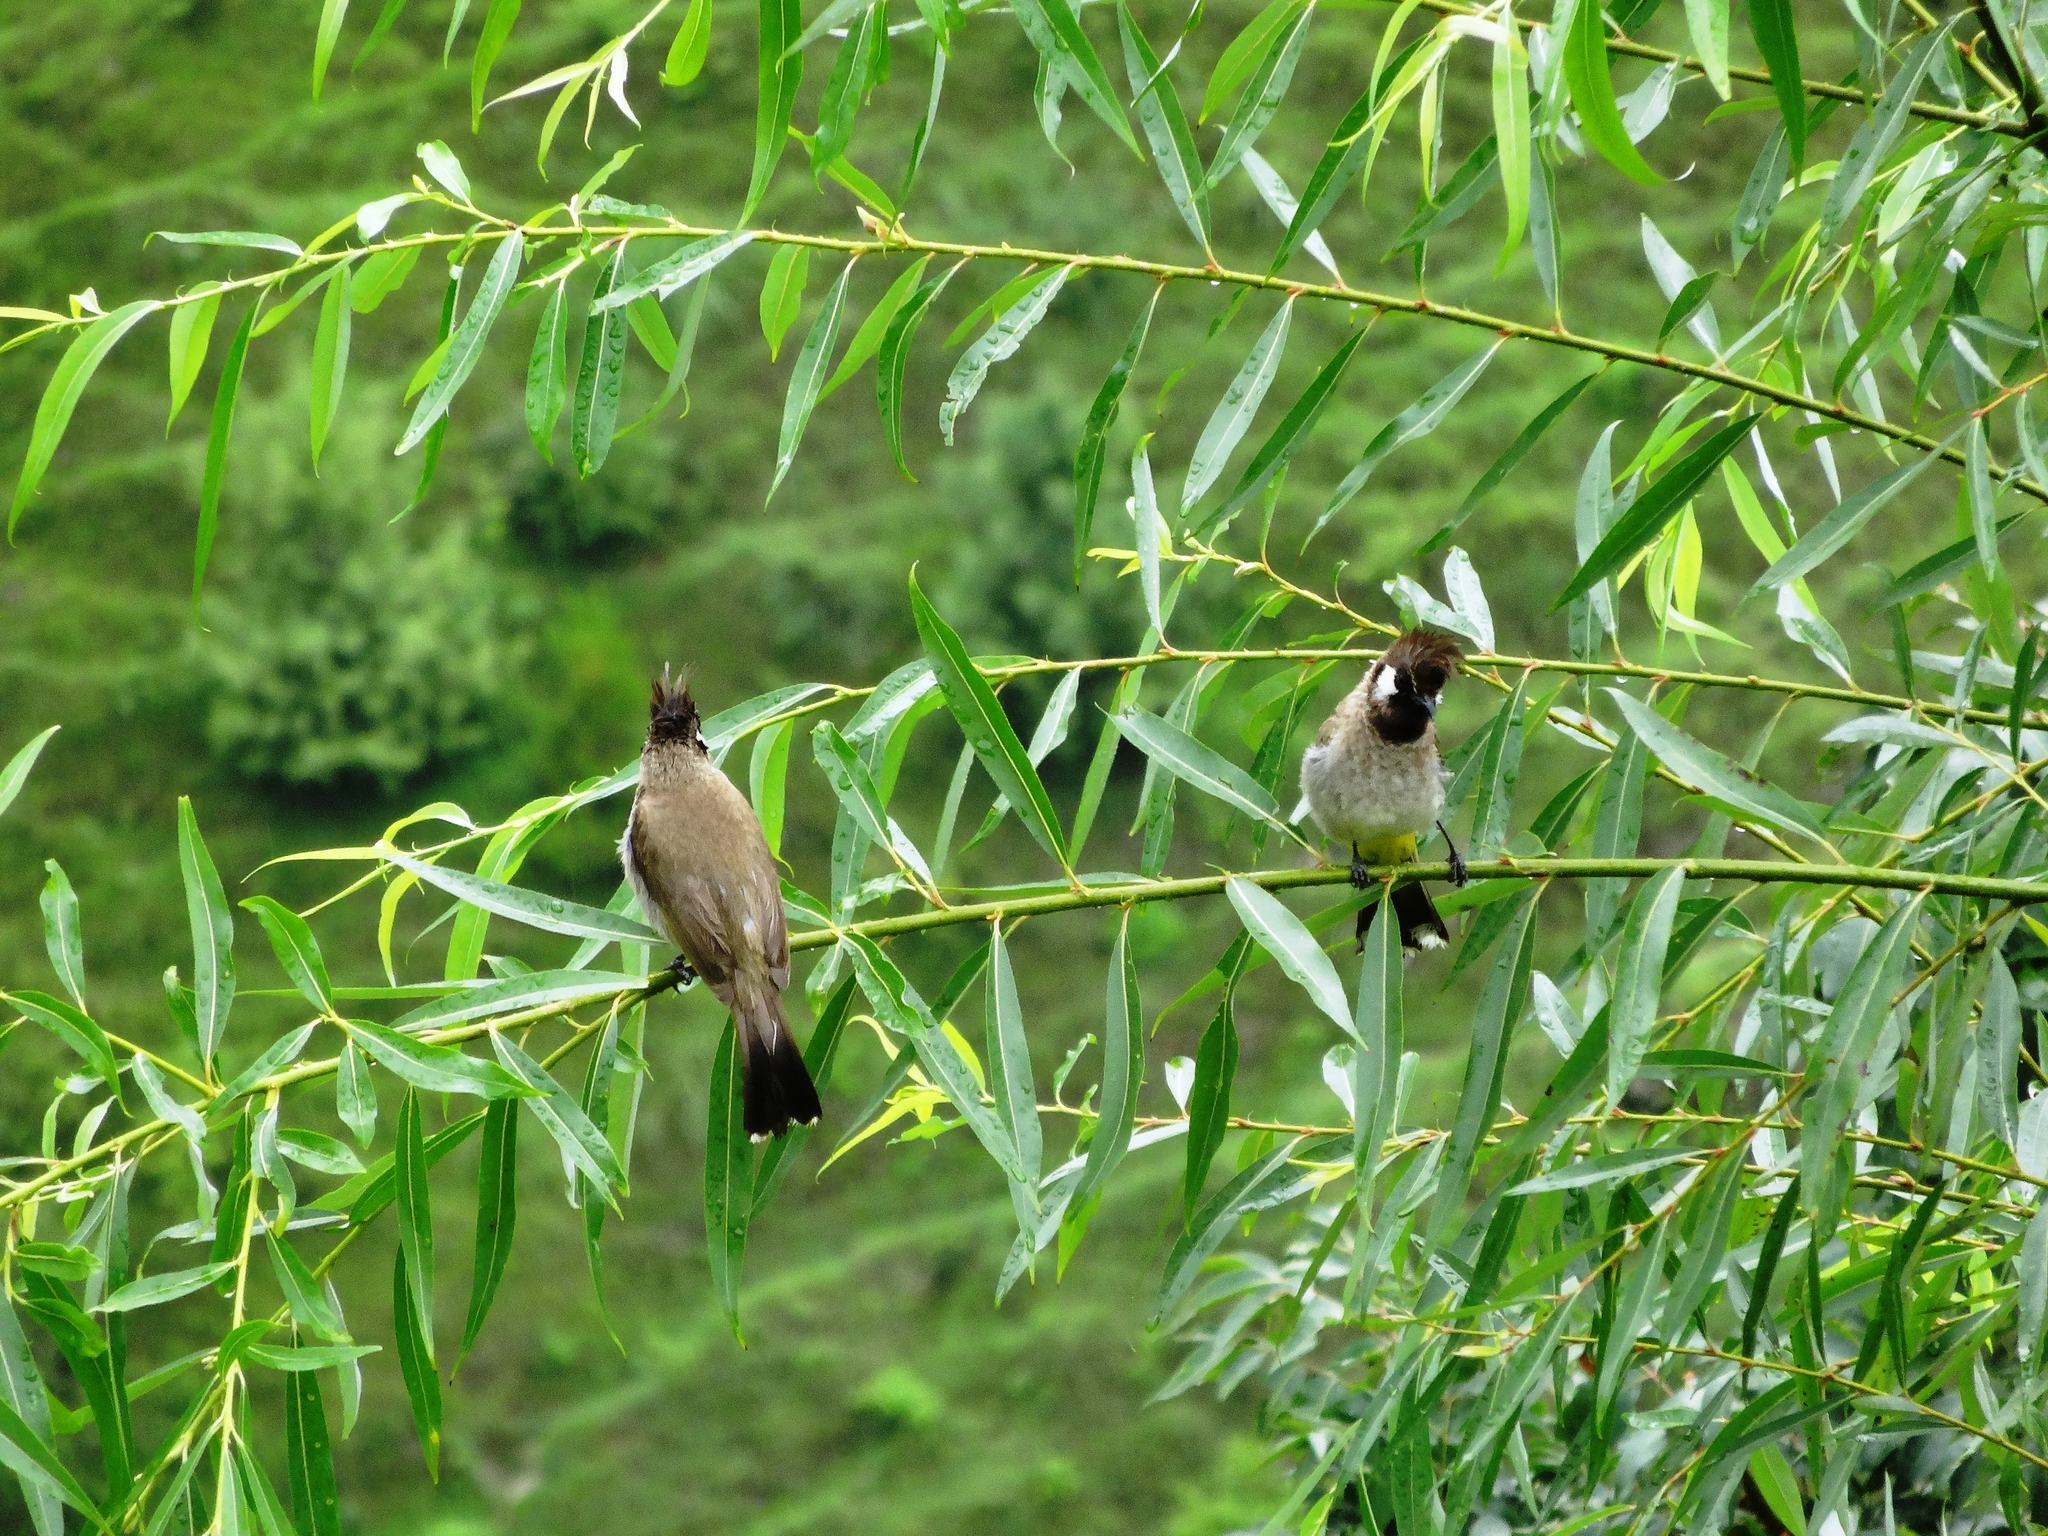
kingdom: Animalia
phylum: Chordata
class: Aves
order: Passeriformes
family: Pycnonotidae
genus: Pycnonotus
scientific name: Pycnonotus leucogenys
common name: Himalayan bulbul
